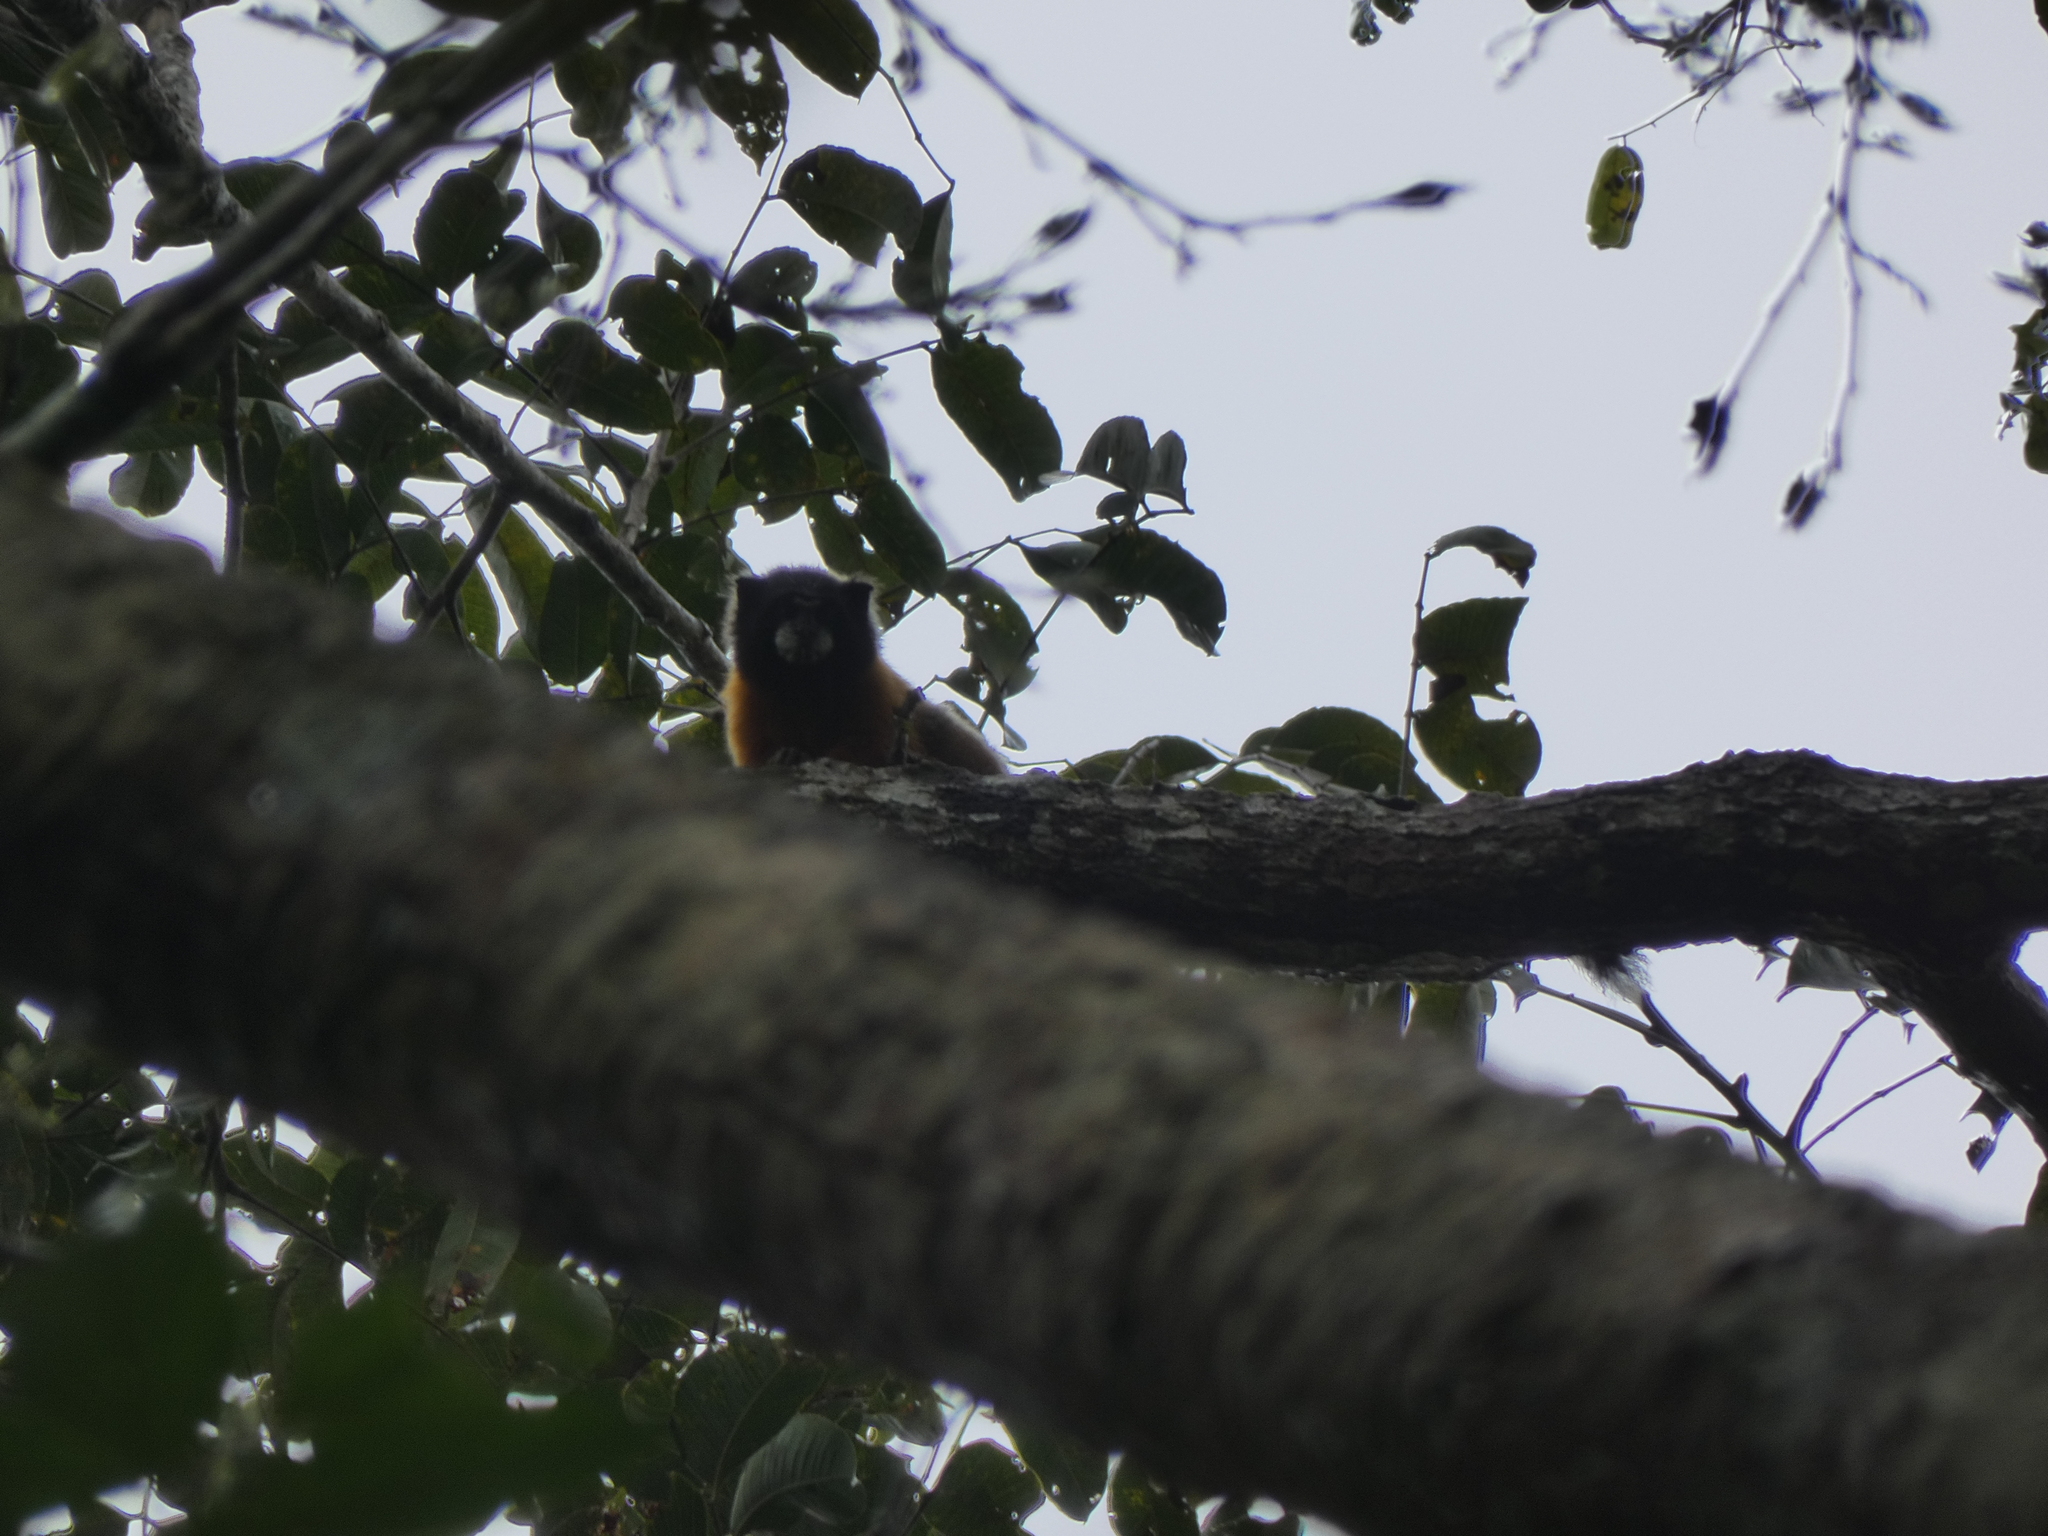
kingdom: Animalia
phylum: Chordata
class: Mammalia
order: Primates
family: Callitrichidae
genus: Leontocebus
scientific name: Leontocebus tripartitus
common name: Golden-mantled saddle-back tamarin
